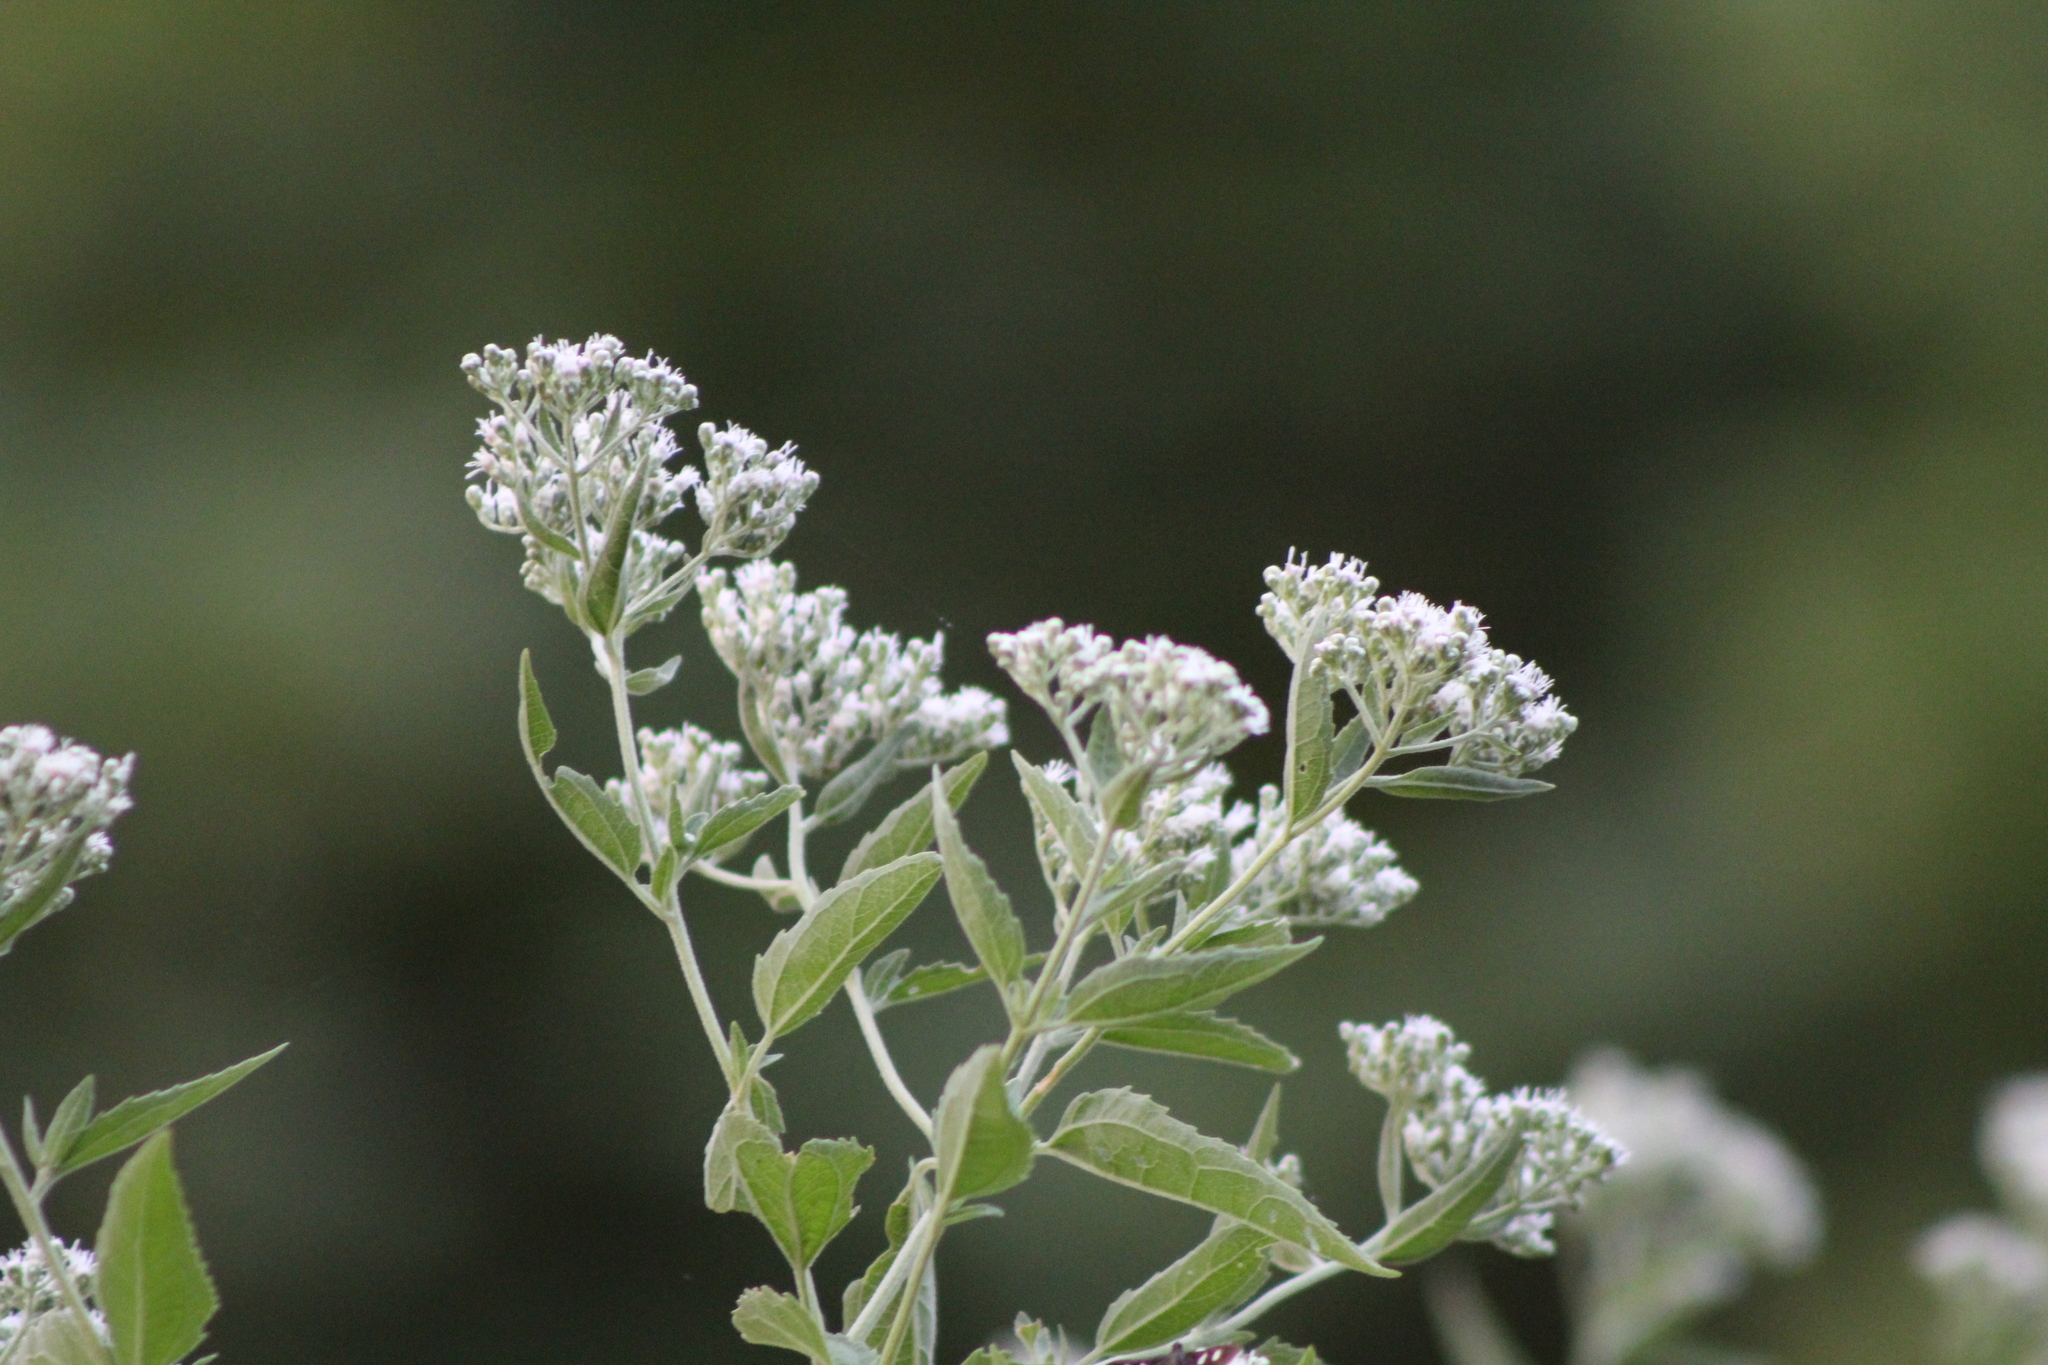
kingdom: Plantae
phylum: Tracheophyta
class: Magnoliopsida
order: Asterales
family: Asteraceae
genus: Eupatorium
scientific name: Eupatorium serotinum
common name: Late boneset
